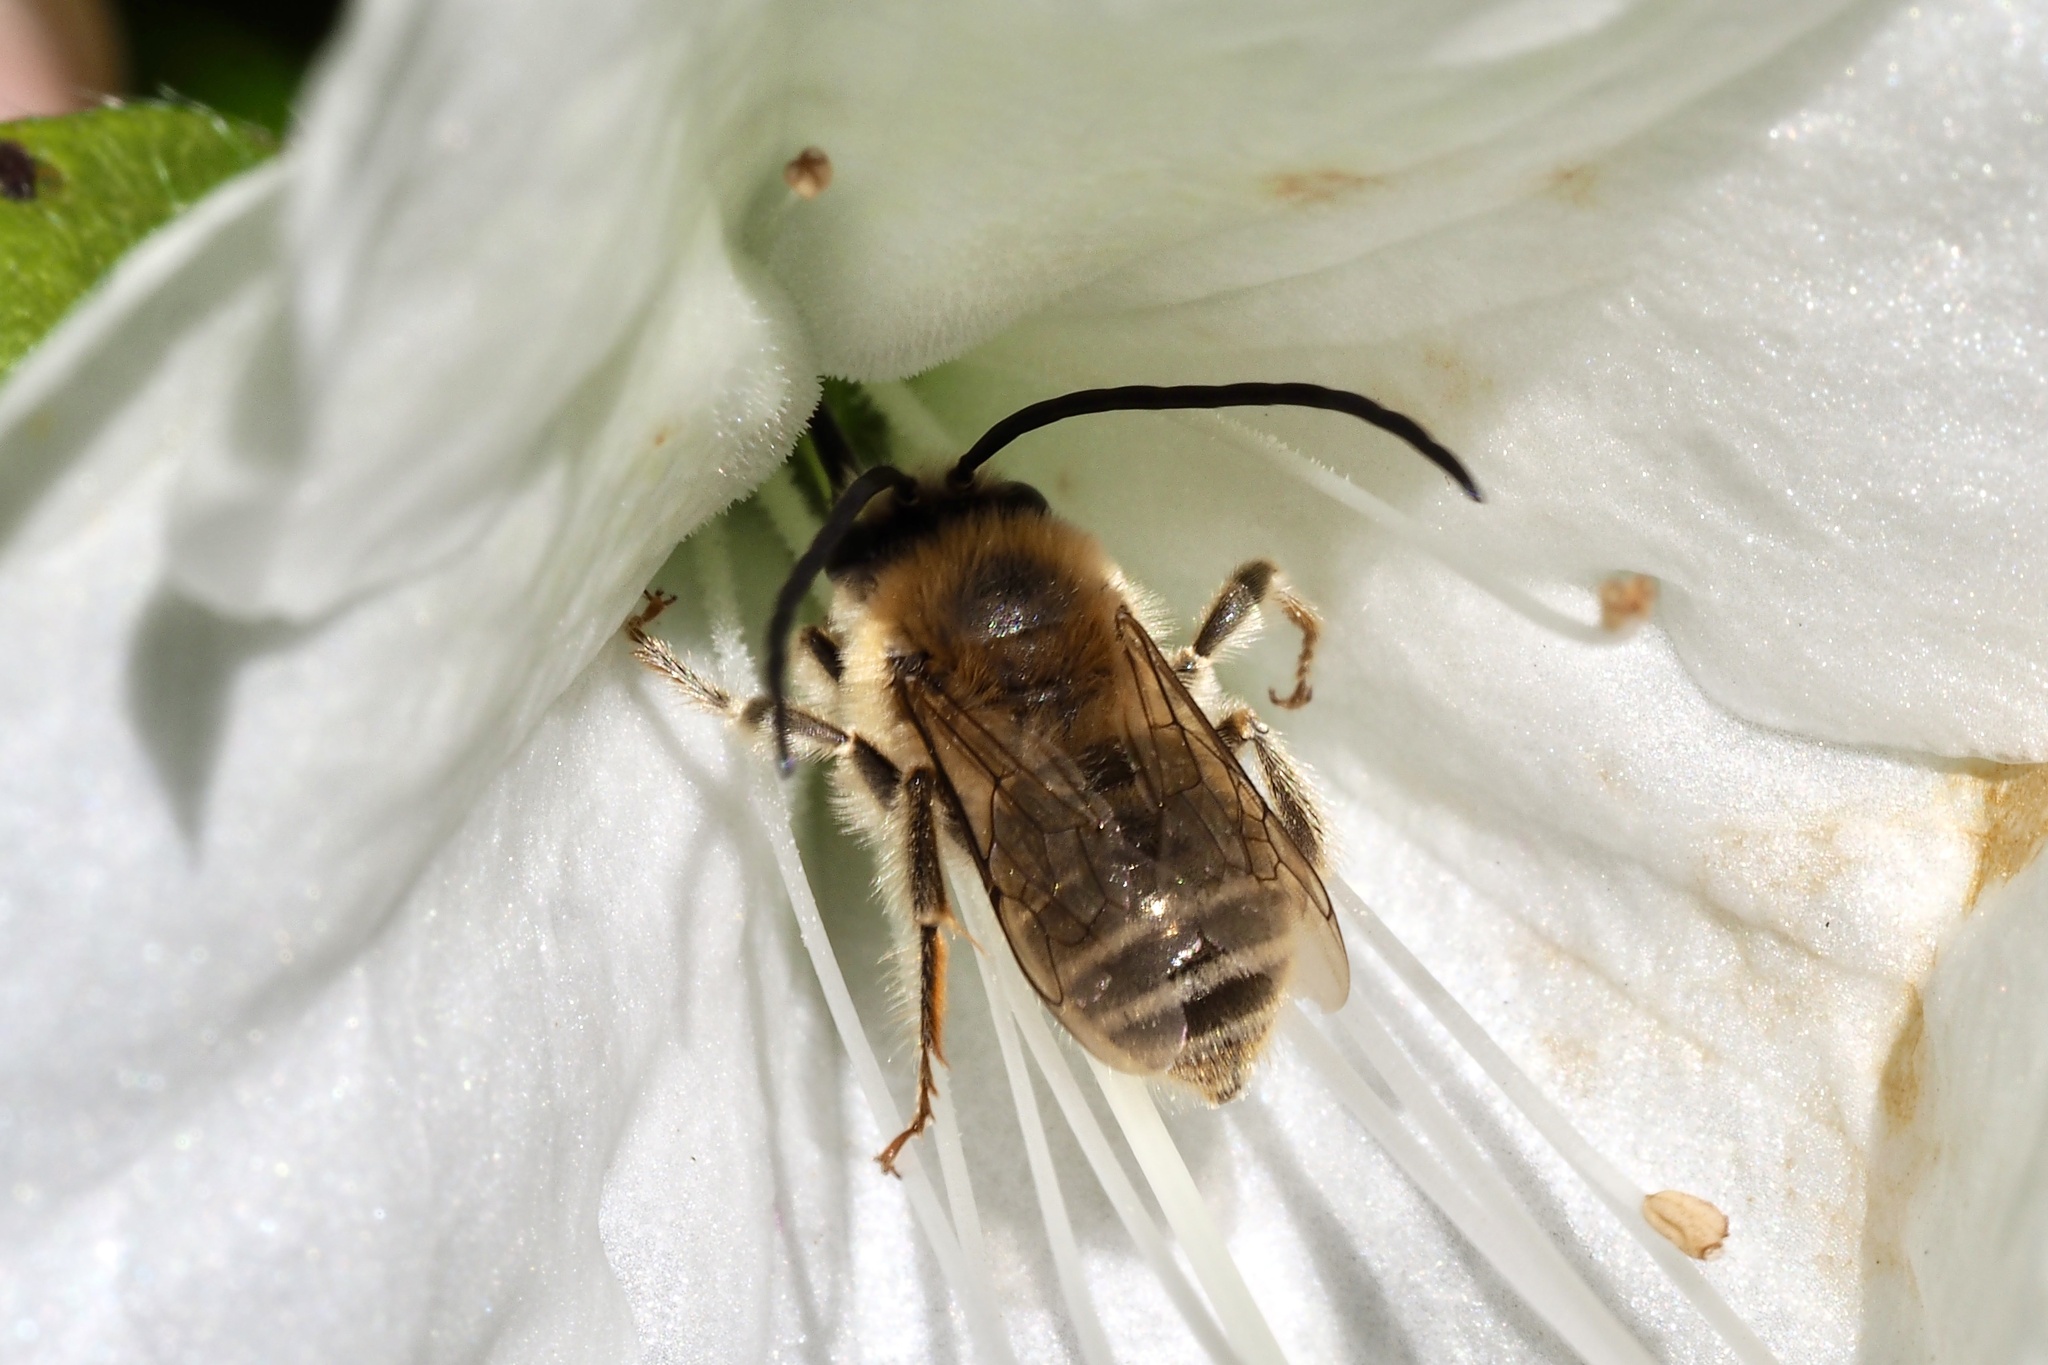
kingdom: Animalia
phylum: Arthropoda
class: Insecta
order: Hymenoptera
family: Apidae
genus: Eucera
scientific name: Eucera nipponensis
